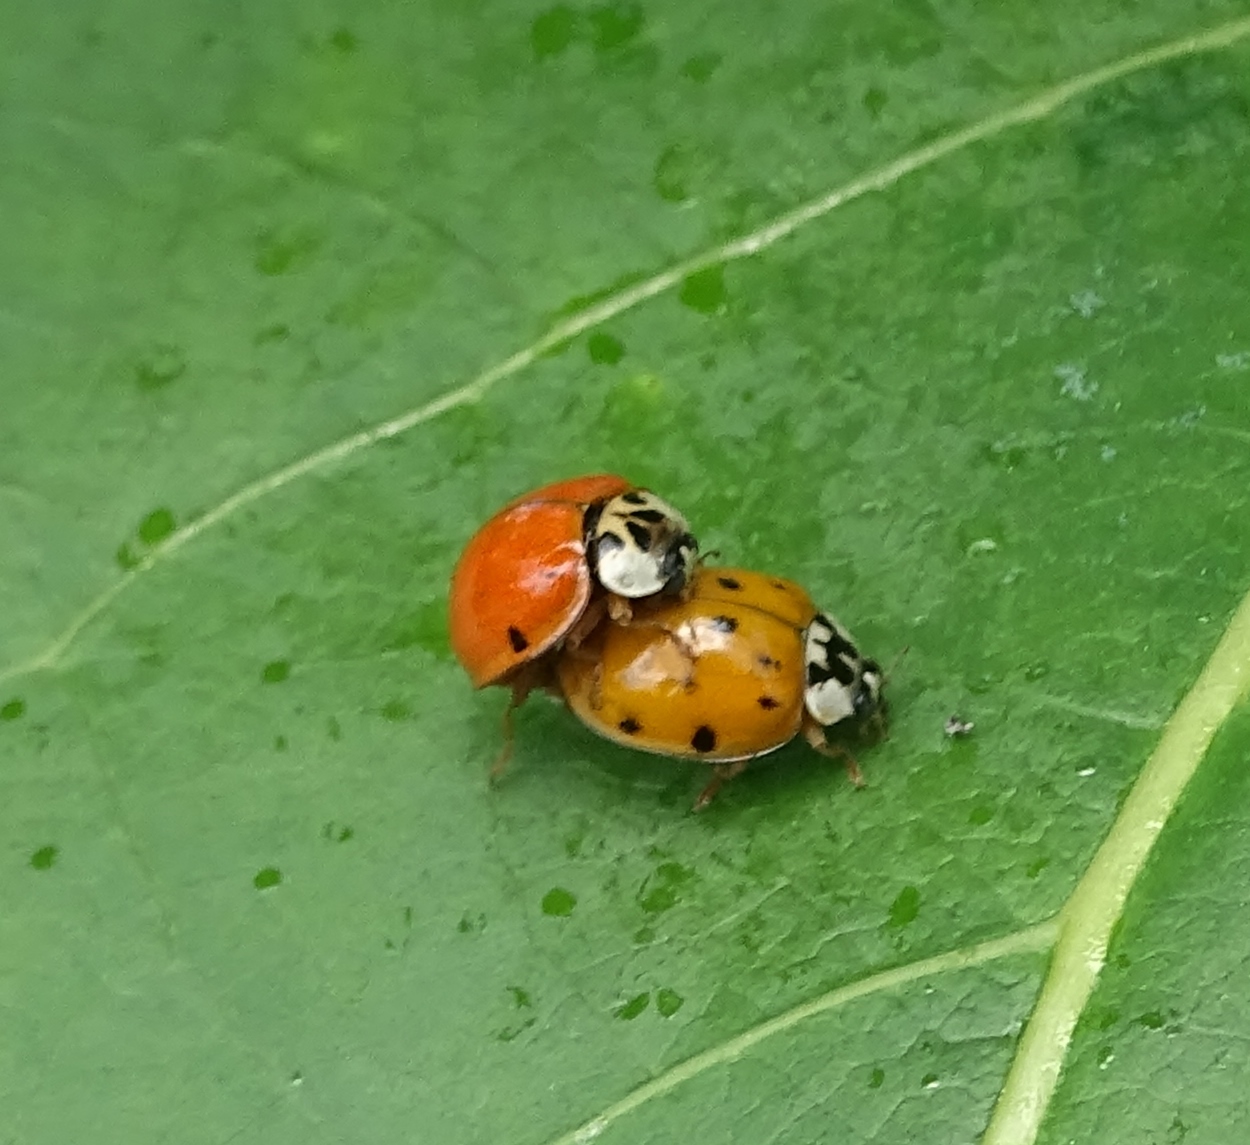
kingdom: Animalia
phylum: Arthropoda
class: Insecta
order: Coleoptera
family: Coccinellidae
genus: Harmonia
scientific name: Harmonia axyridis
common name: Harlequin ladybird
